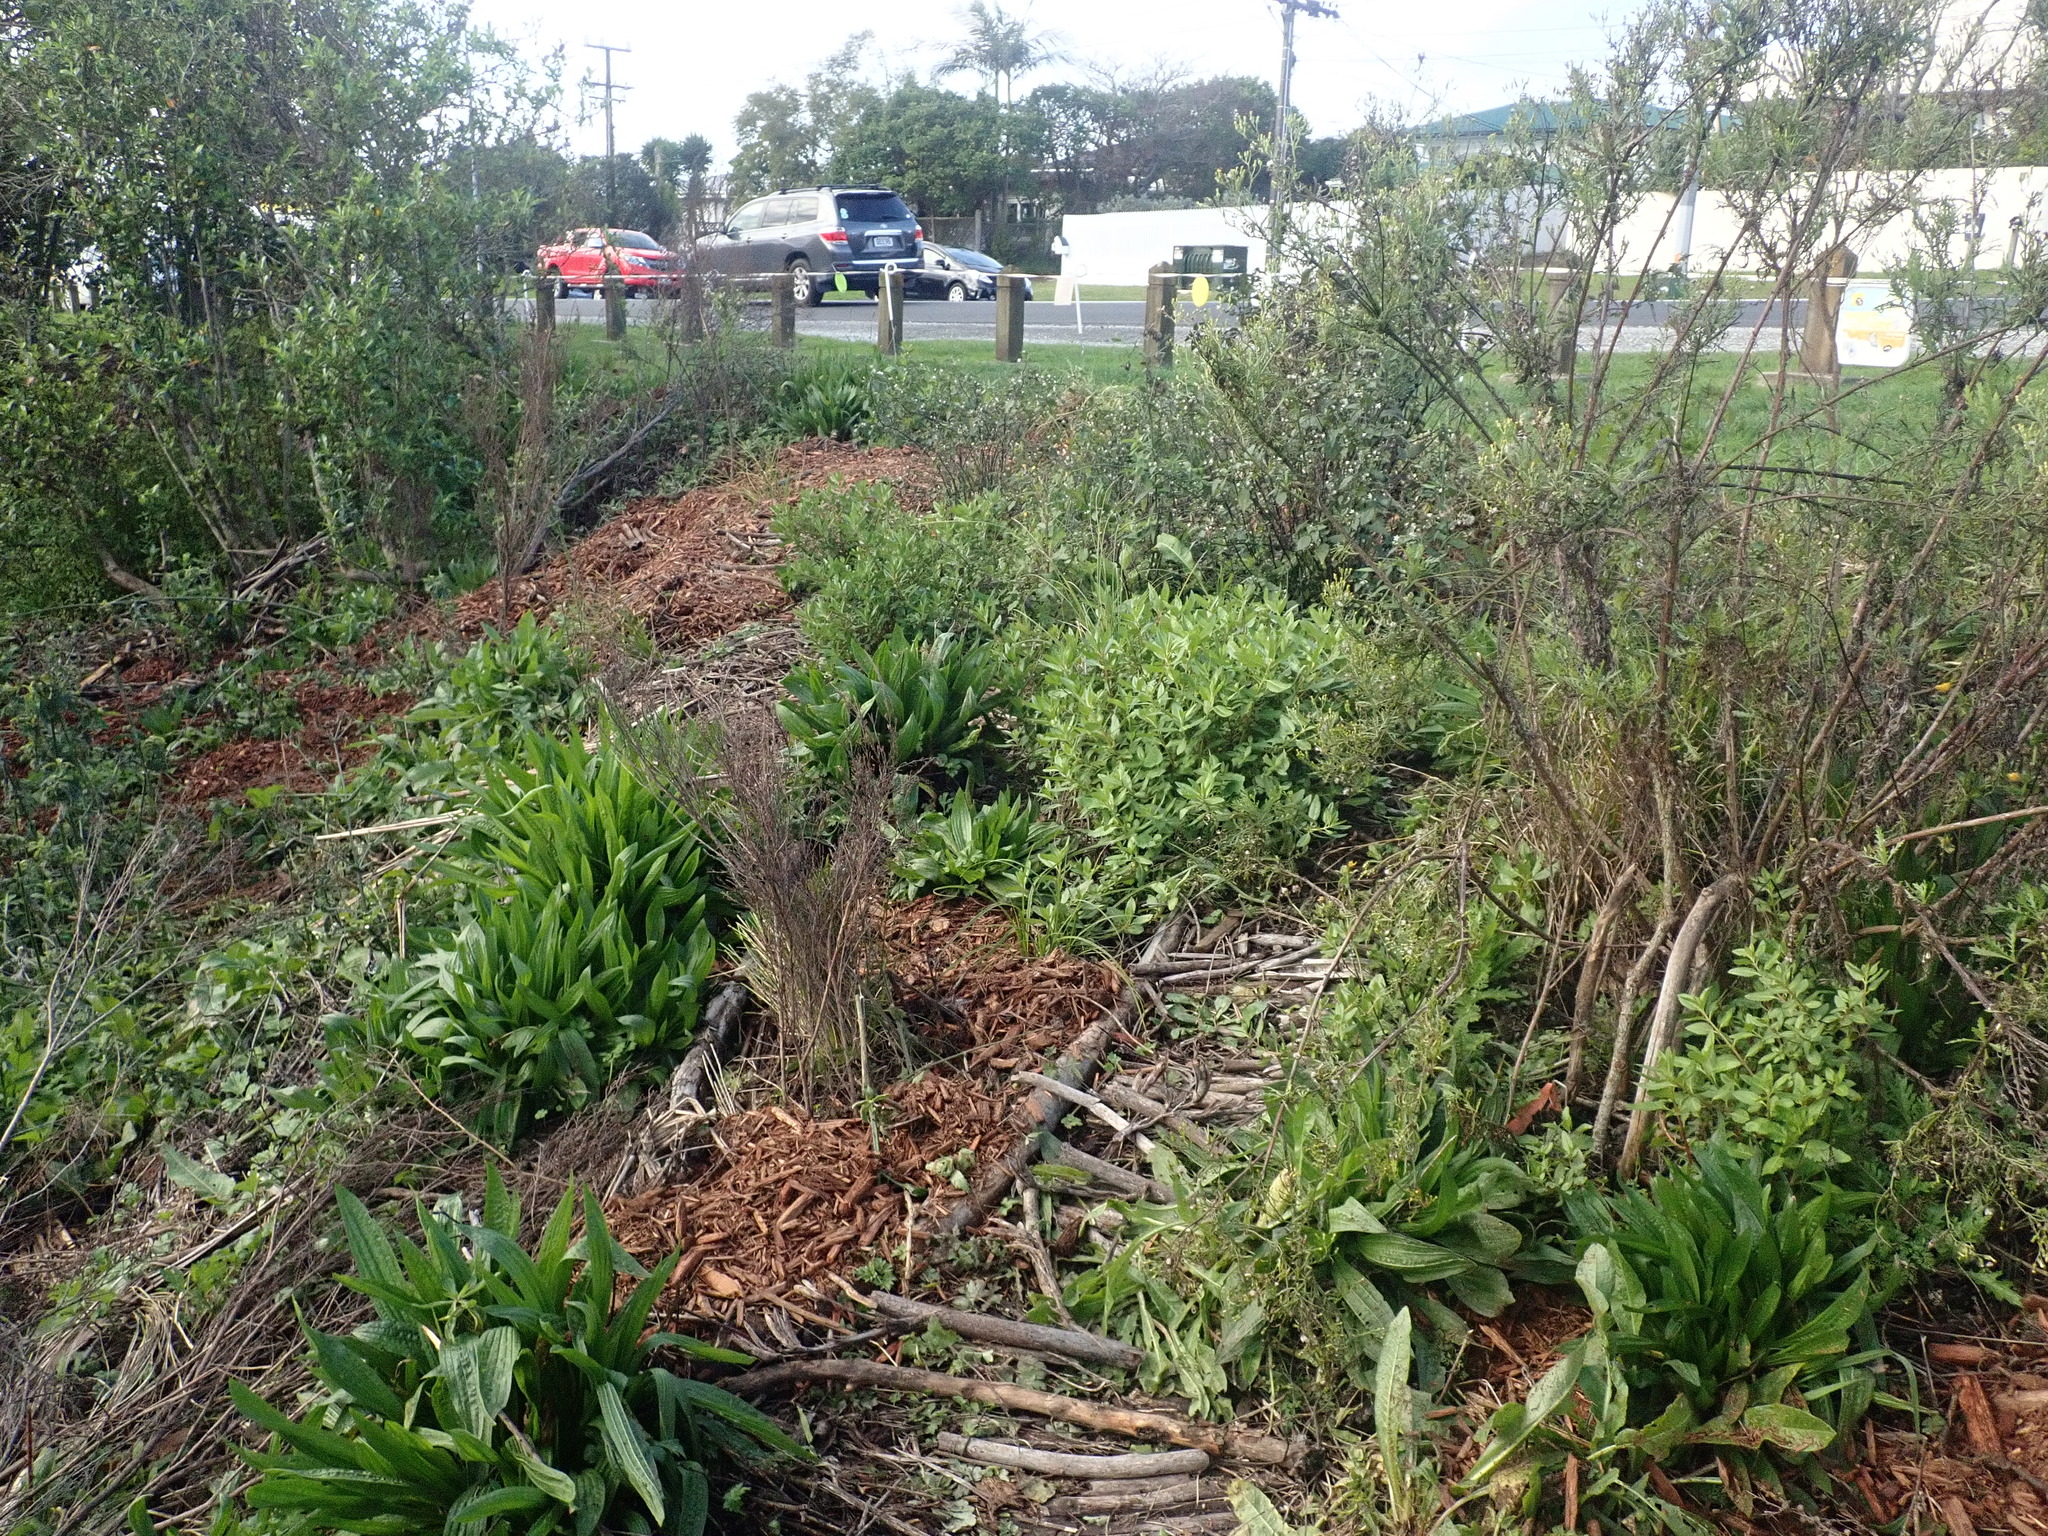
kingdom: Plantae
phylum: Tracheophyta
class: Magnoliopsida
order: Saxifragales
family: Haloragaceae
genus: Haloragis
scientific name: Haloragis erecta
